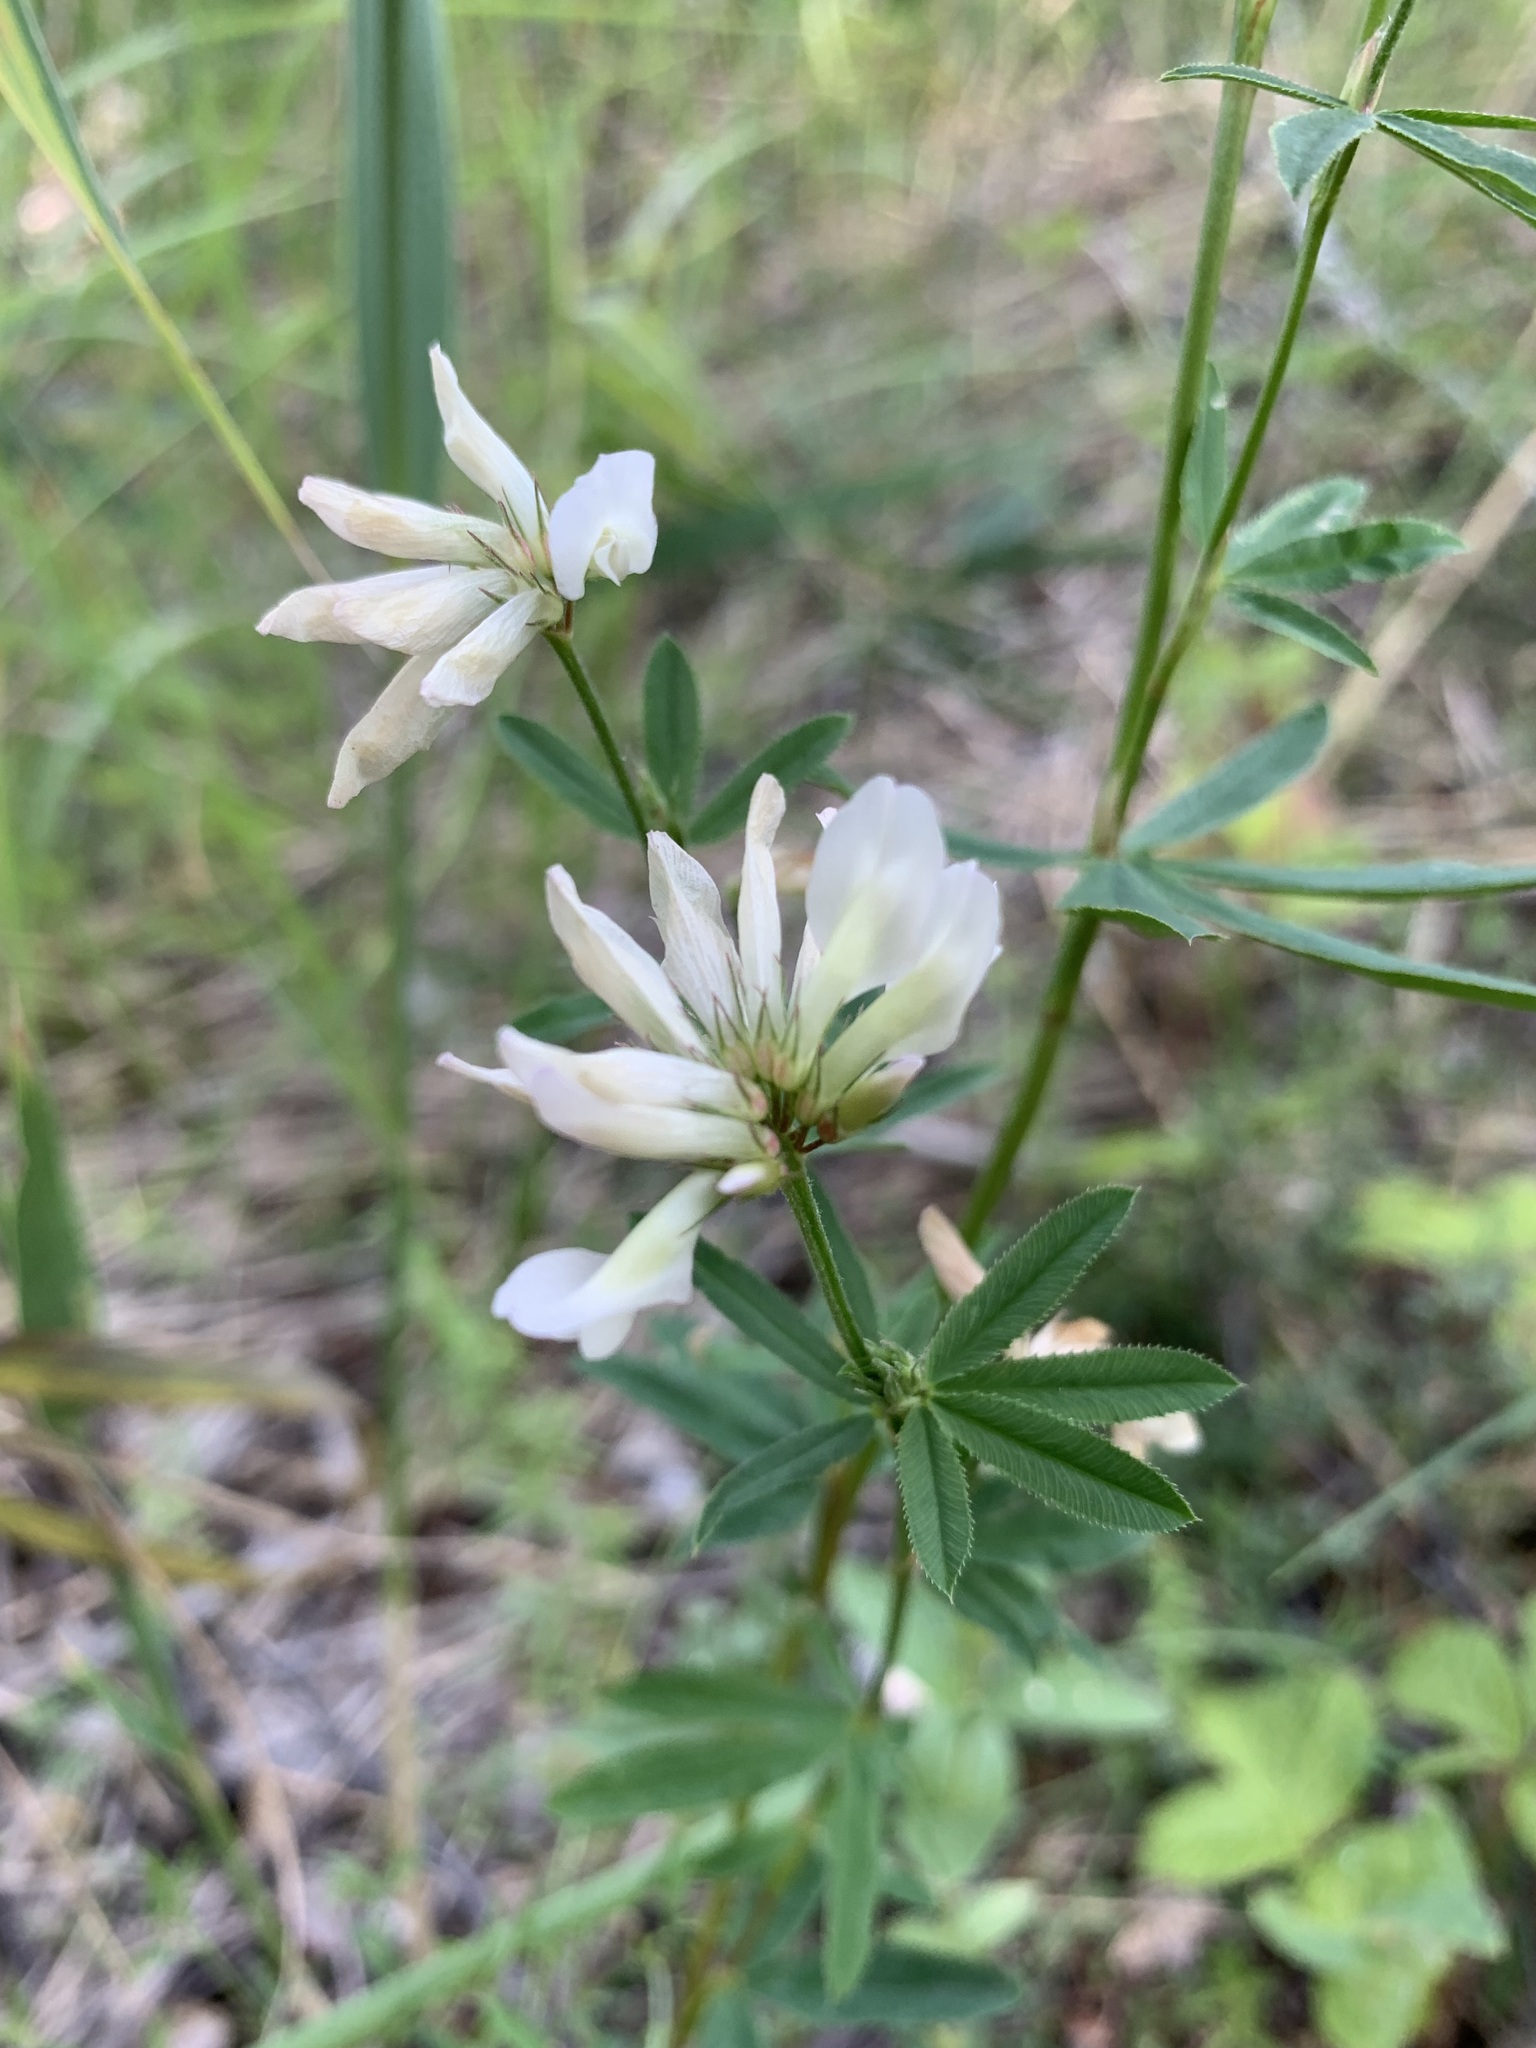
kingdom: Plantae
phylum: Tracheophyta
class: Magnoliopsida
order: Fabales
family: Fabaceae
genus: Trifolium
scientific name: Trifolium lupinaster
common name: Lupine clover
